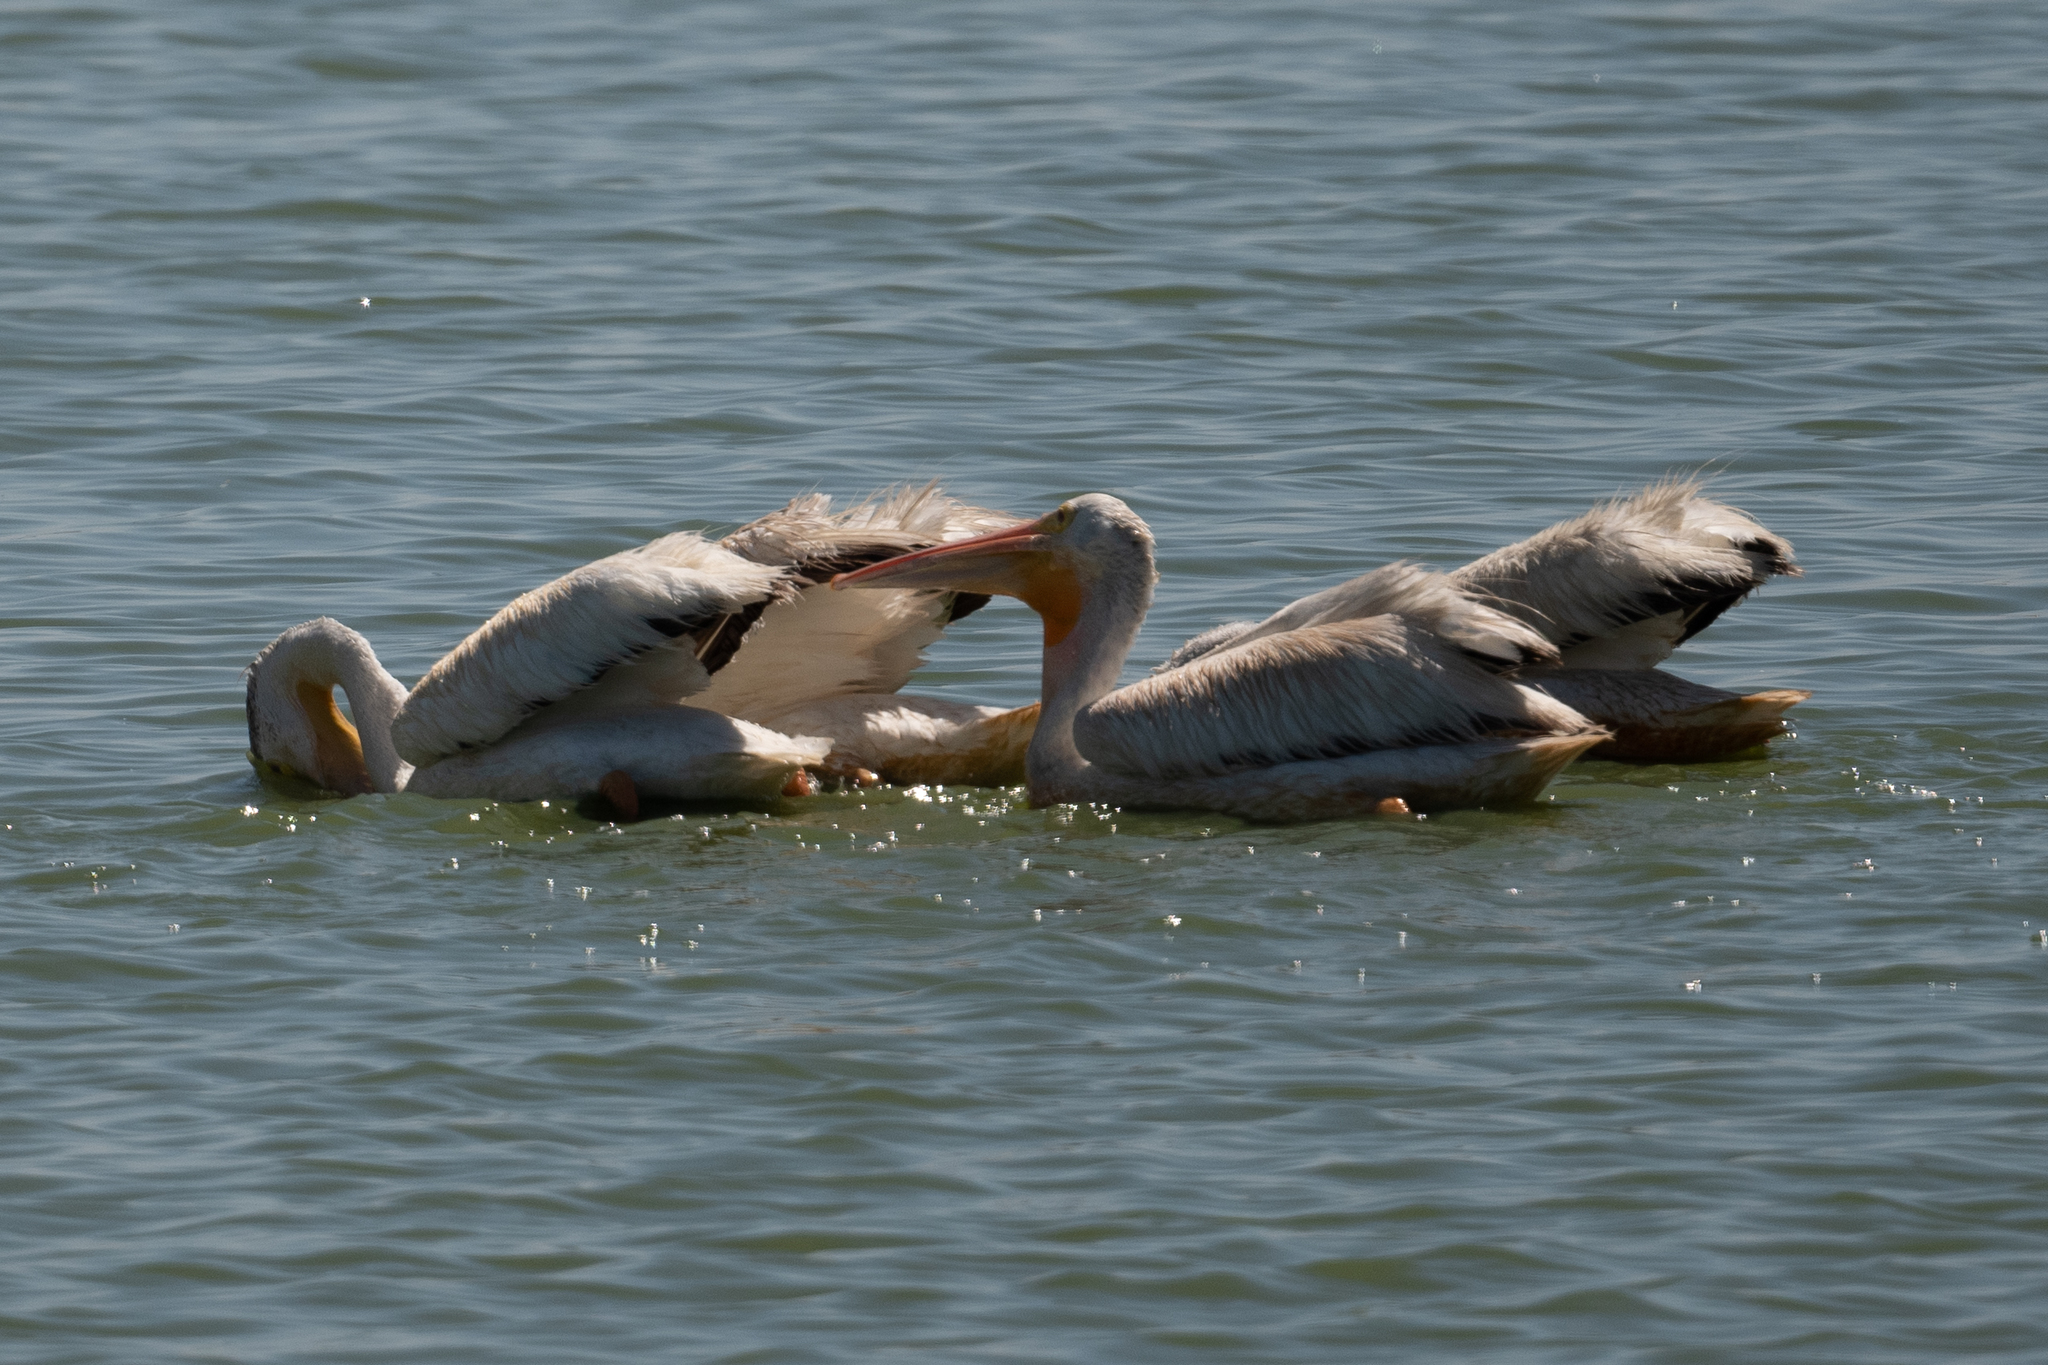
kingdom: Animalia
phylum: Chordata
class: Aves
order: Pelecaniformes
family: Pelecanidae
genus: Pelecanus
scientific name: Pelecanus erythrorhynchos
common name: American white pelican
